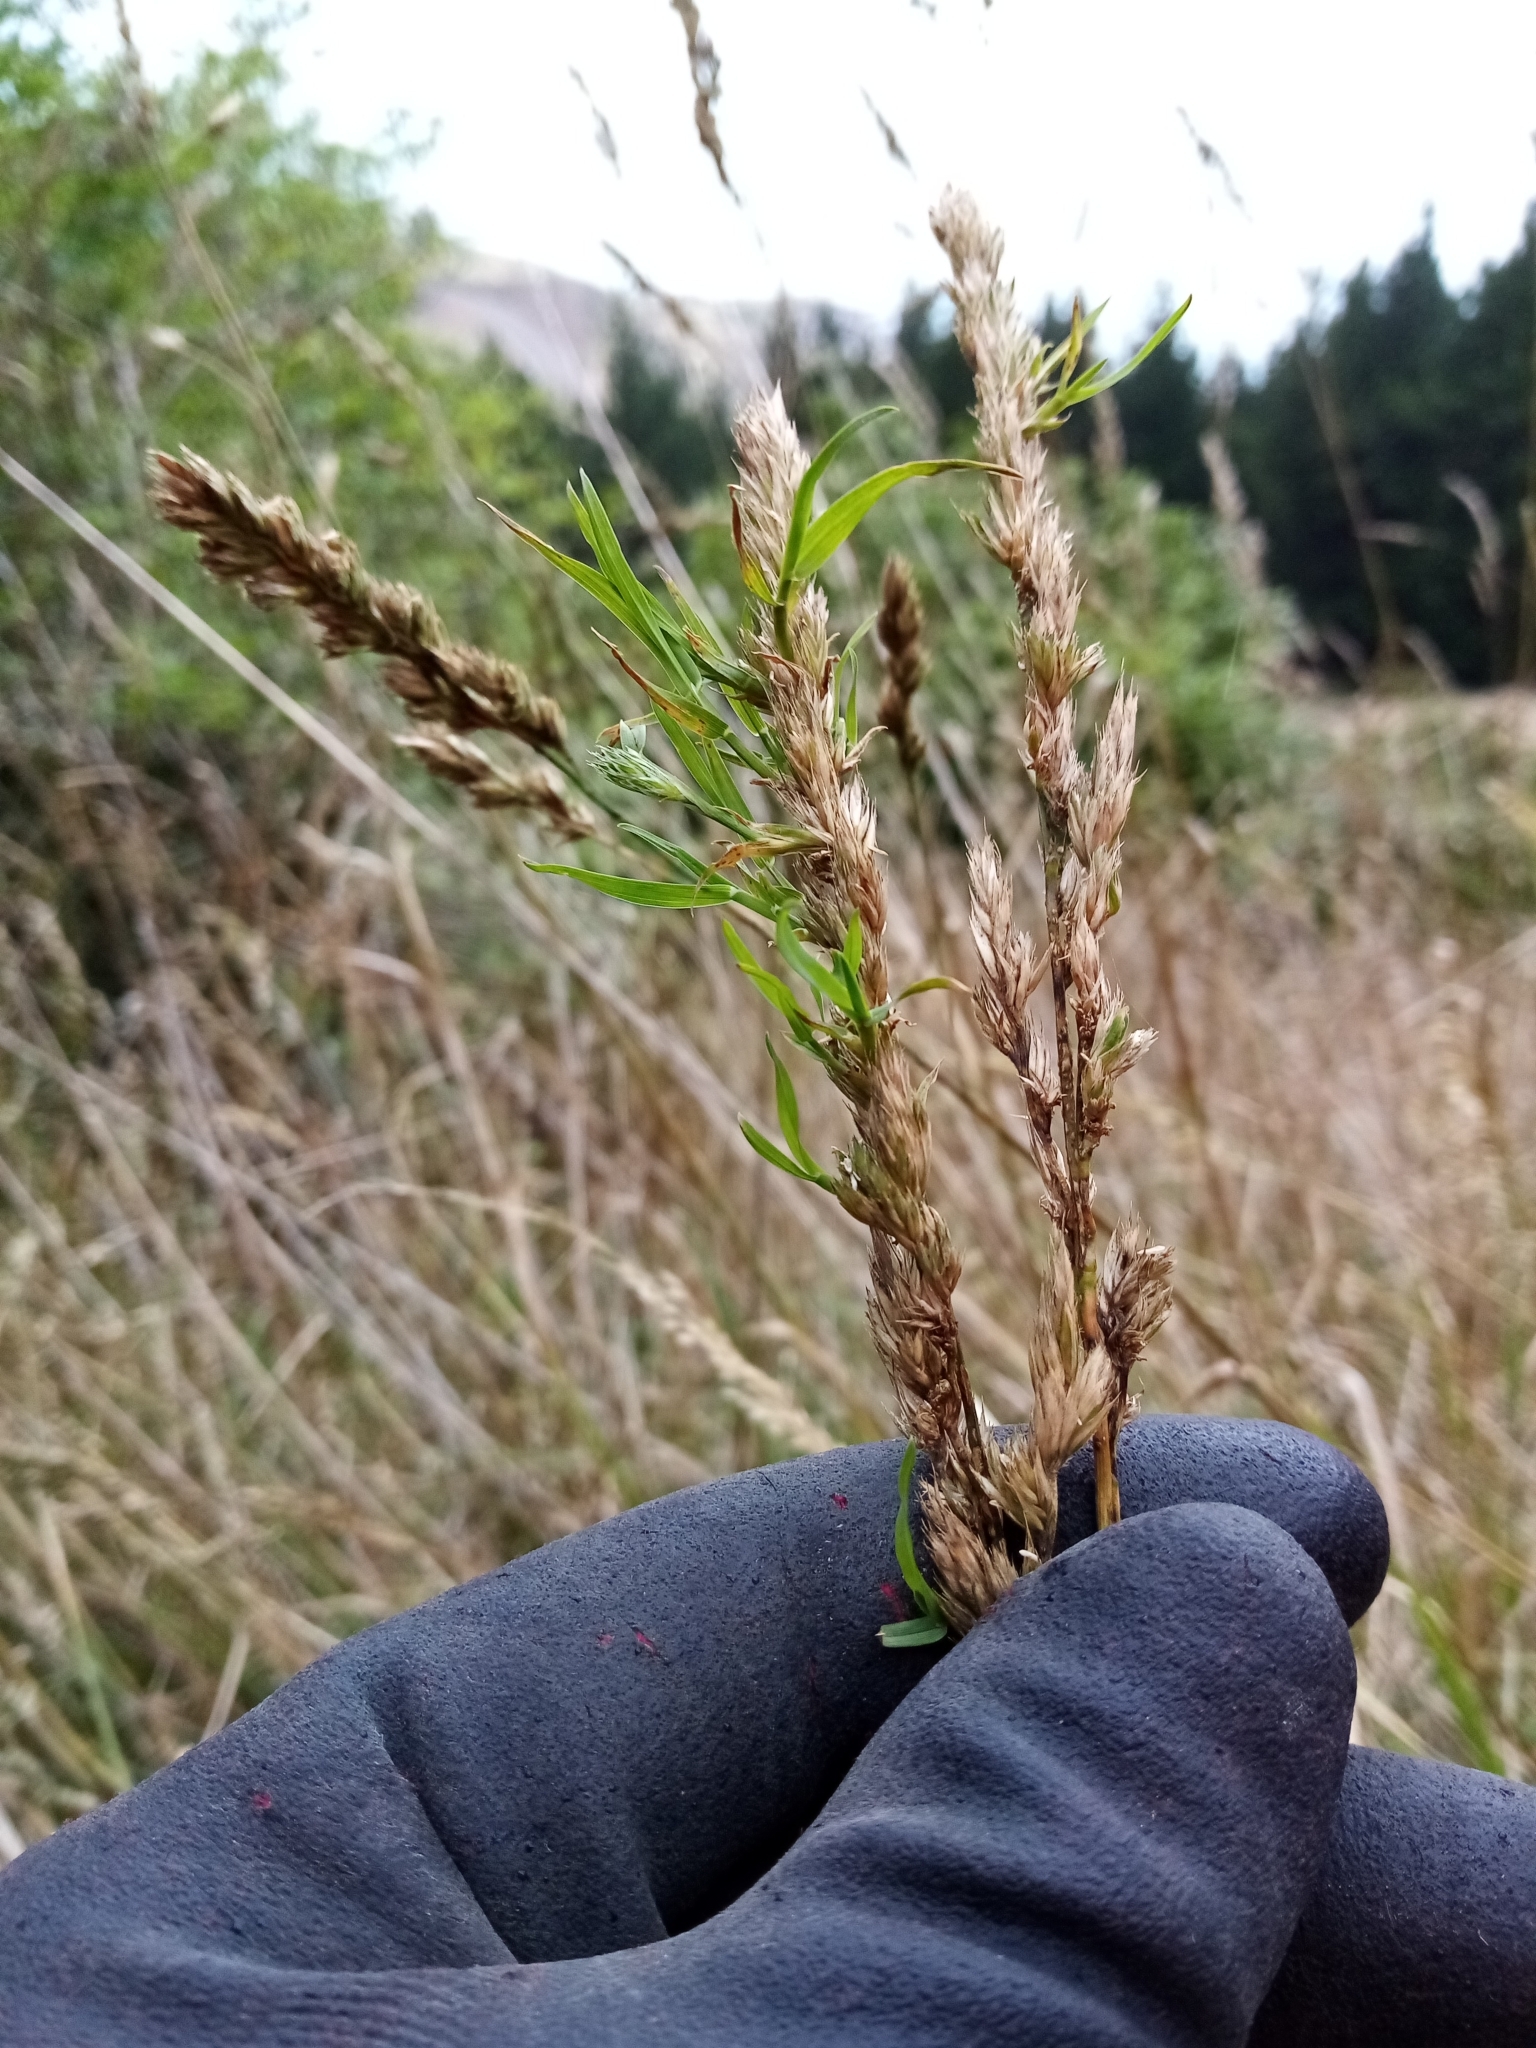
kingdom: Plantae
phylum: Tracheophyta
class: Liliopsida
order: Poales
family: Poaceae
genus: Dactylis
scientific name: Dactylis glomerata
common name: Orchardgrass
